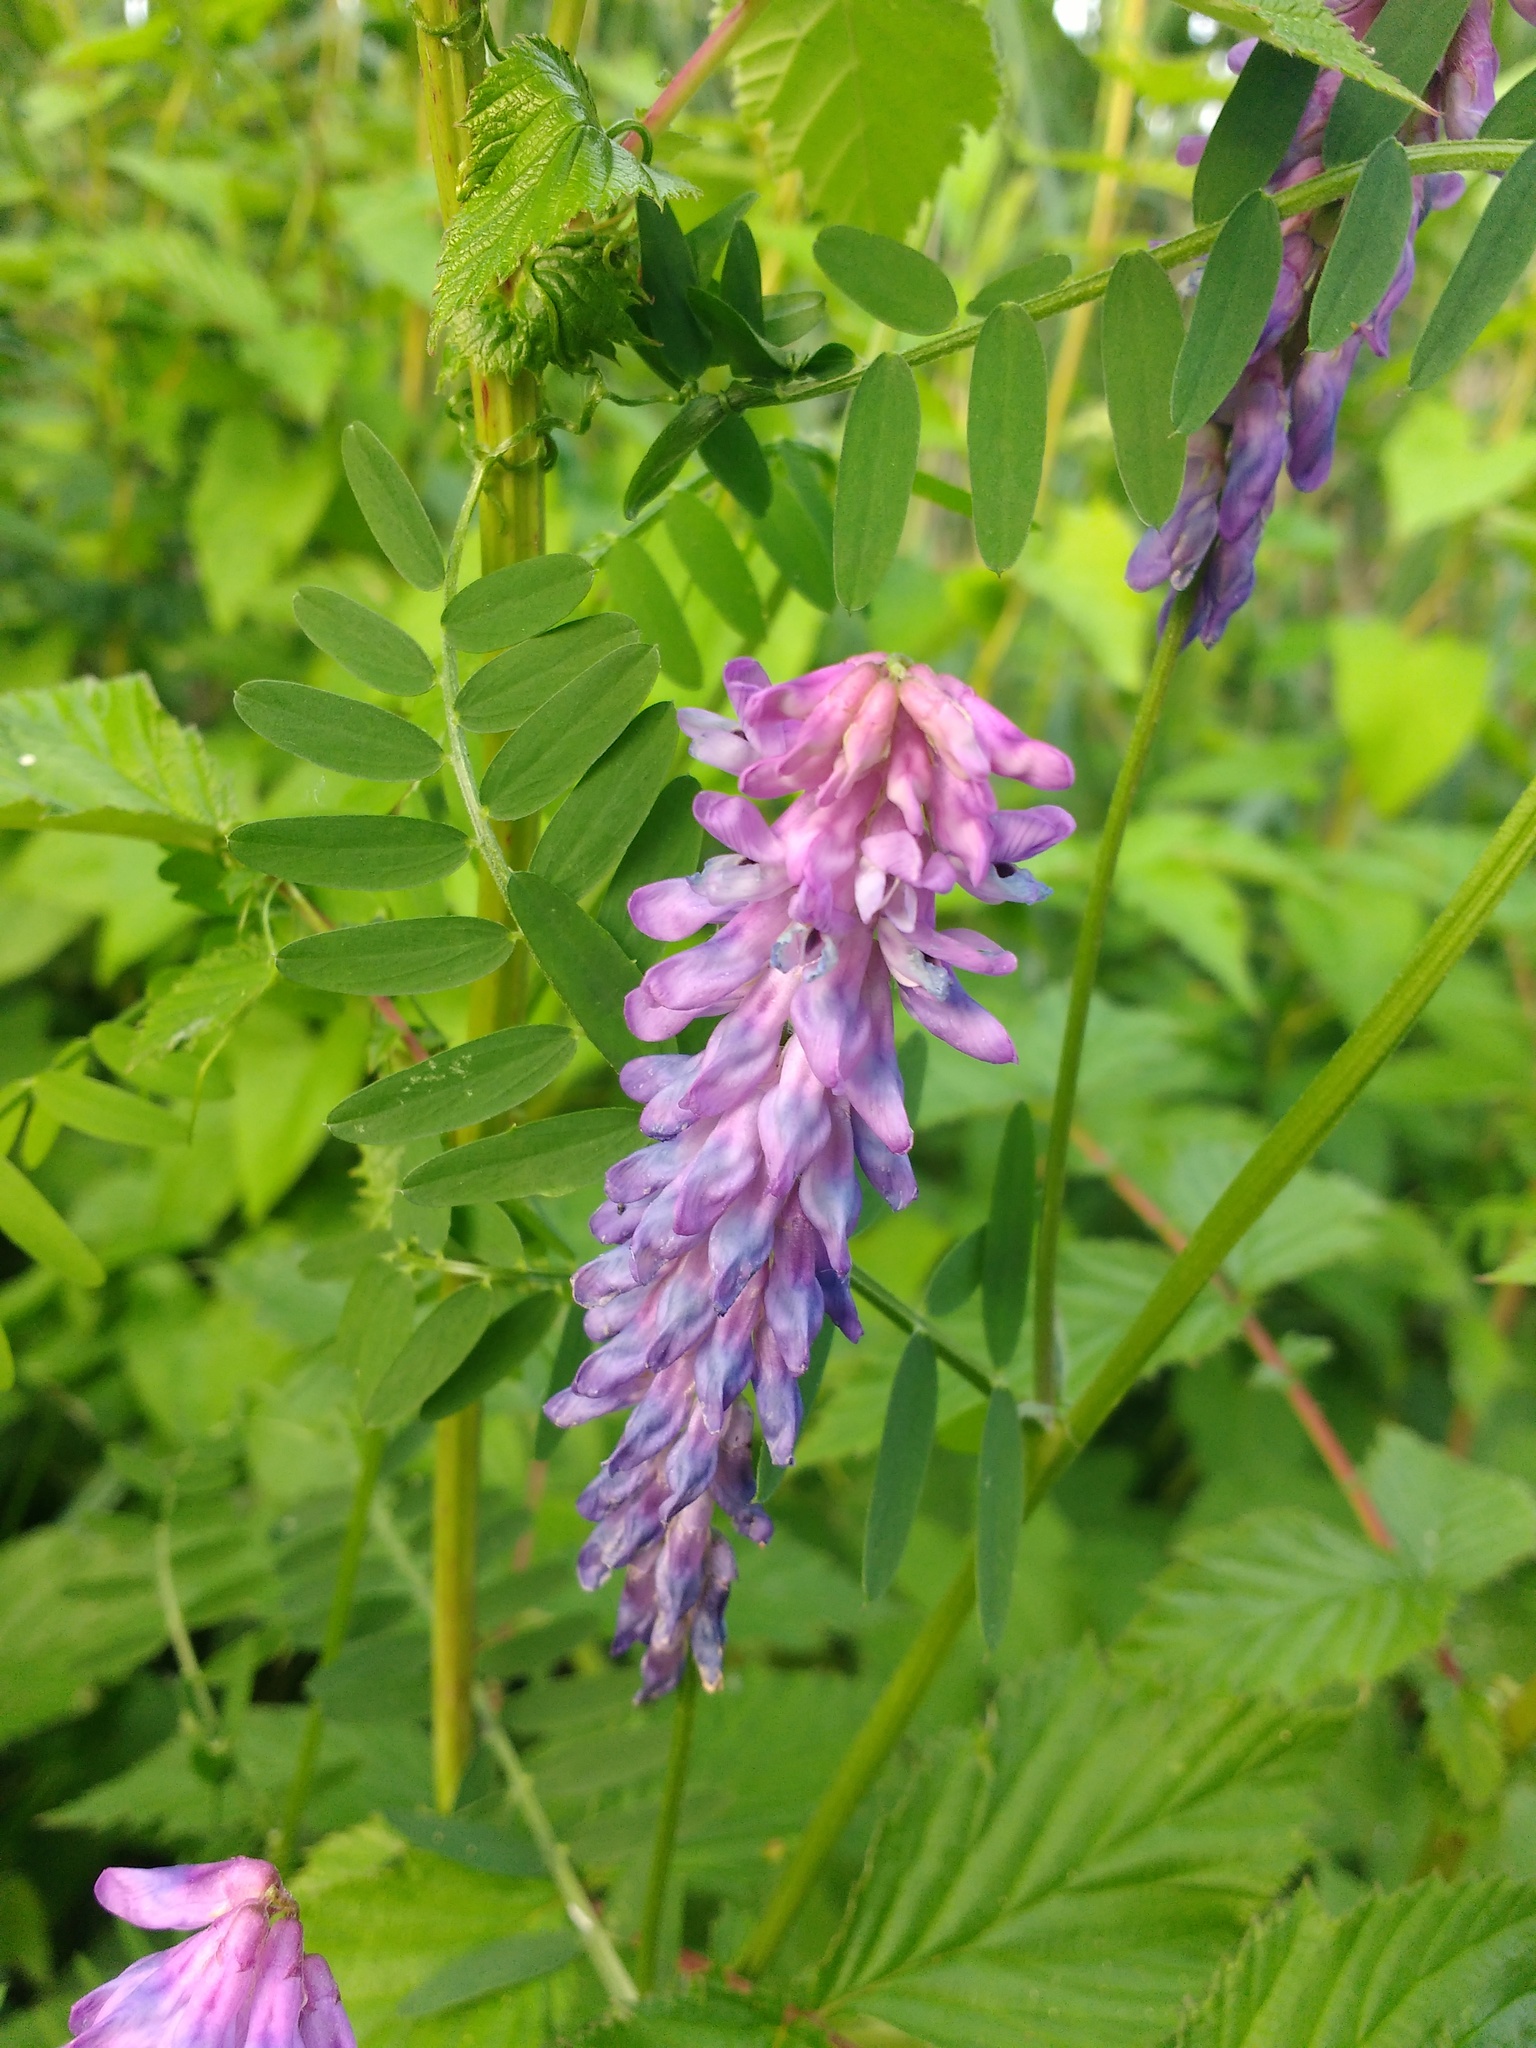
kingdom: Plantae
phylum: Tracheophyta
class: Magnoliopsida
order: Fabales
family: Fabaceae
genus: Vicia
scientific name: Vicia cracca
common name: Bird vetch
